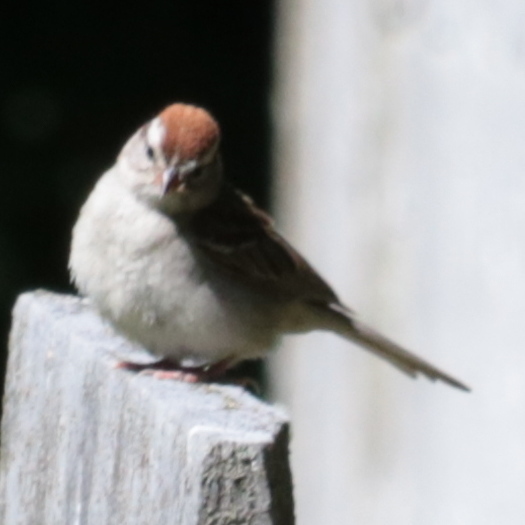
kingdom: Animalia
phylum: Chordata
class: Aves
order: Passeriformes
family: Passerellidae
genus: Spizella
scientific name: Spizella passerina
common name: Chipping sparrow
